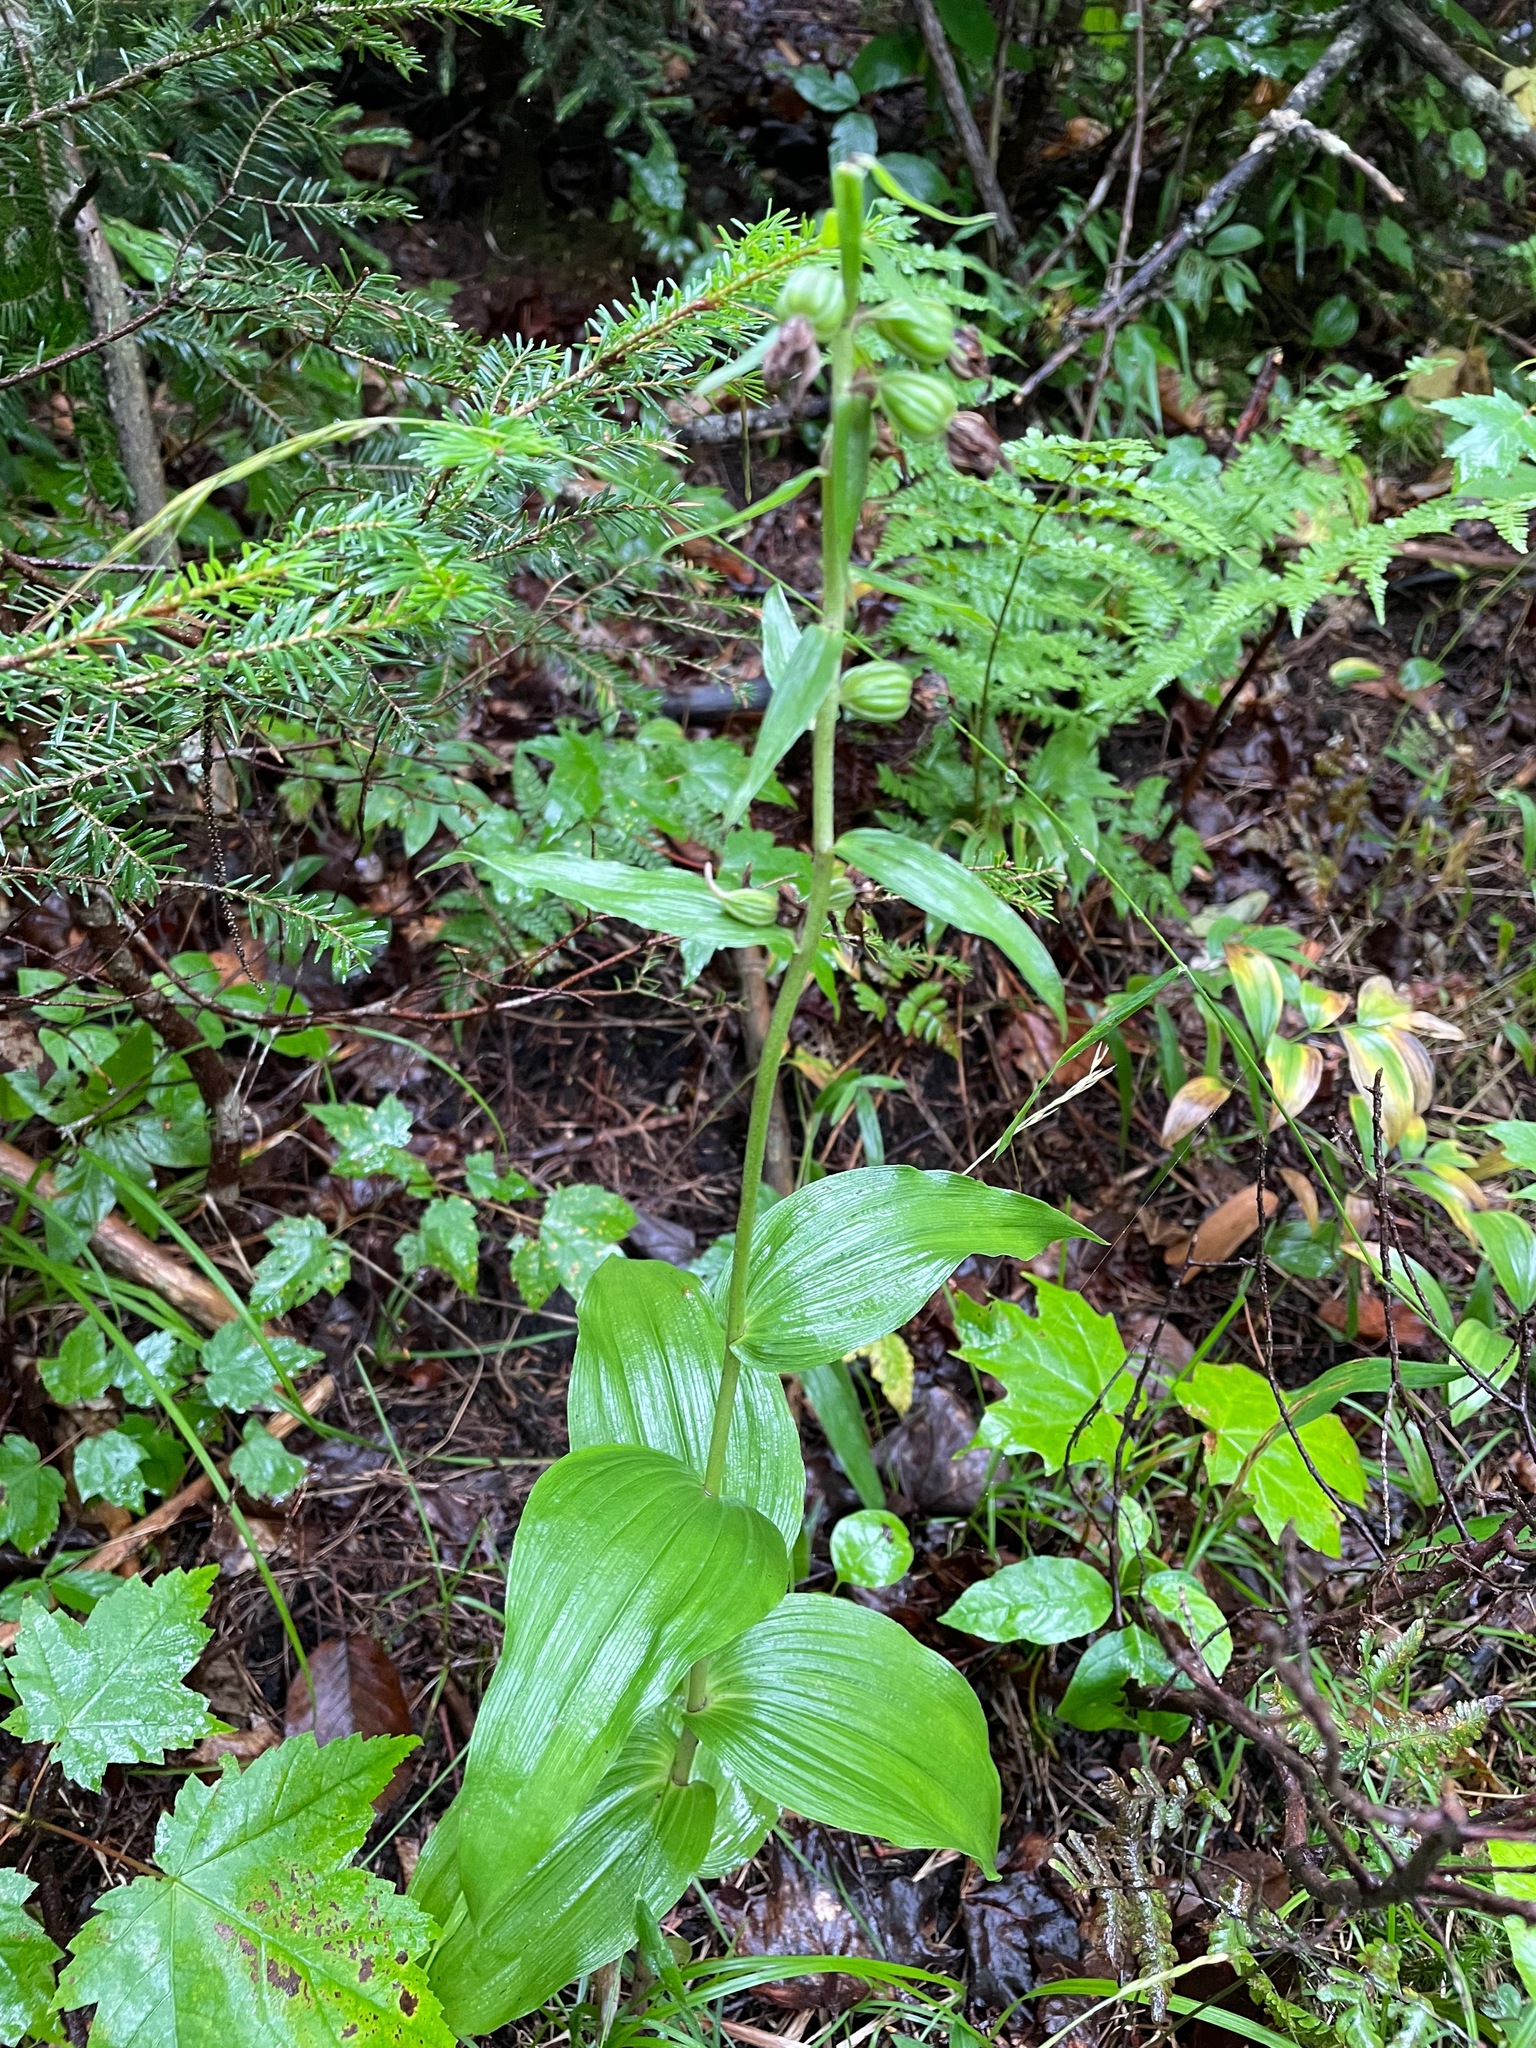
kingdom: Plantae
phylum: Tracheophyta
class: Liliopsida
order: Asparagales
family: Orchidaceae
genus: Epipactis
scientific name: Epipactis helleborine
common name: Broad-leaved helleborine
